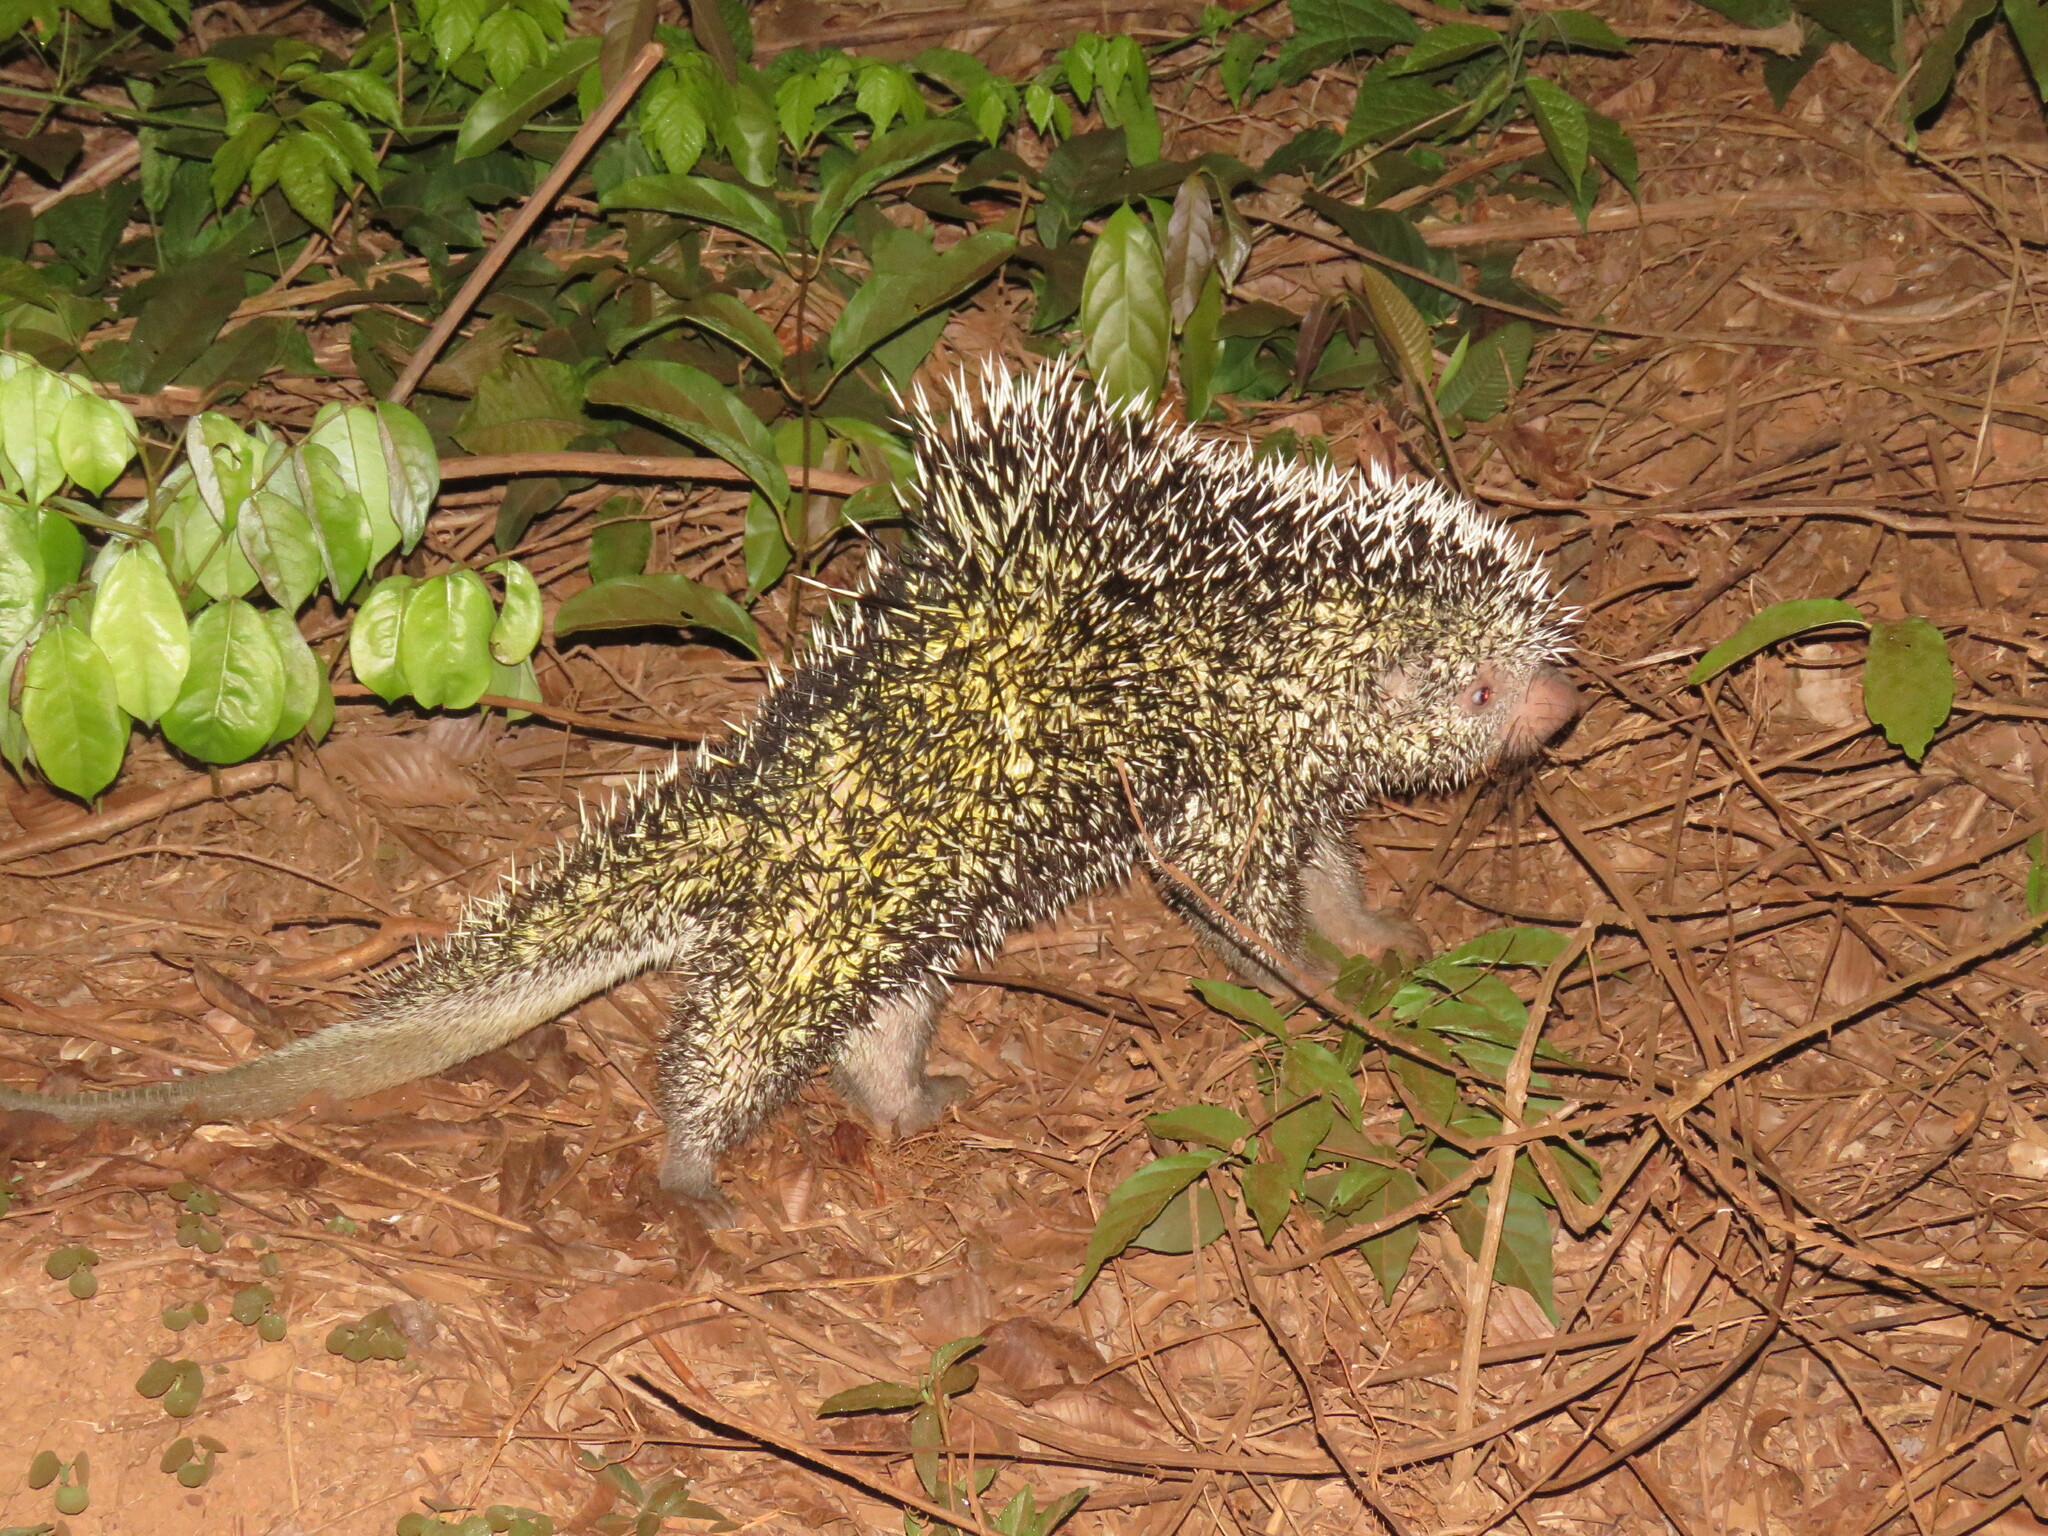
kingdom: Animalia
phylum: Chordata
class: Mammalia
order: Rodentia
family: Erethizontidae
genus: Coendou
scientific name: Coendou longicaudatus
